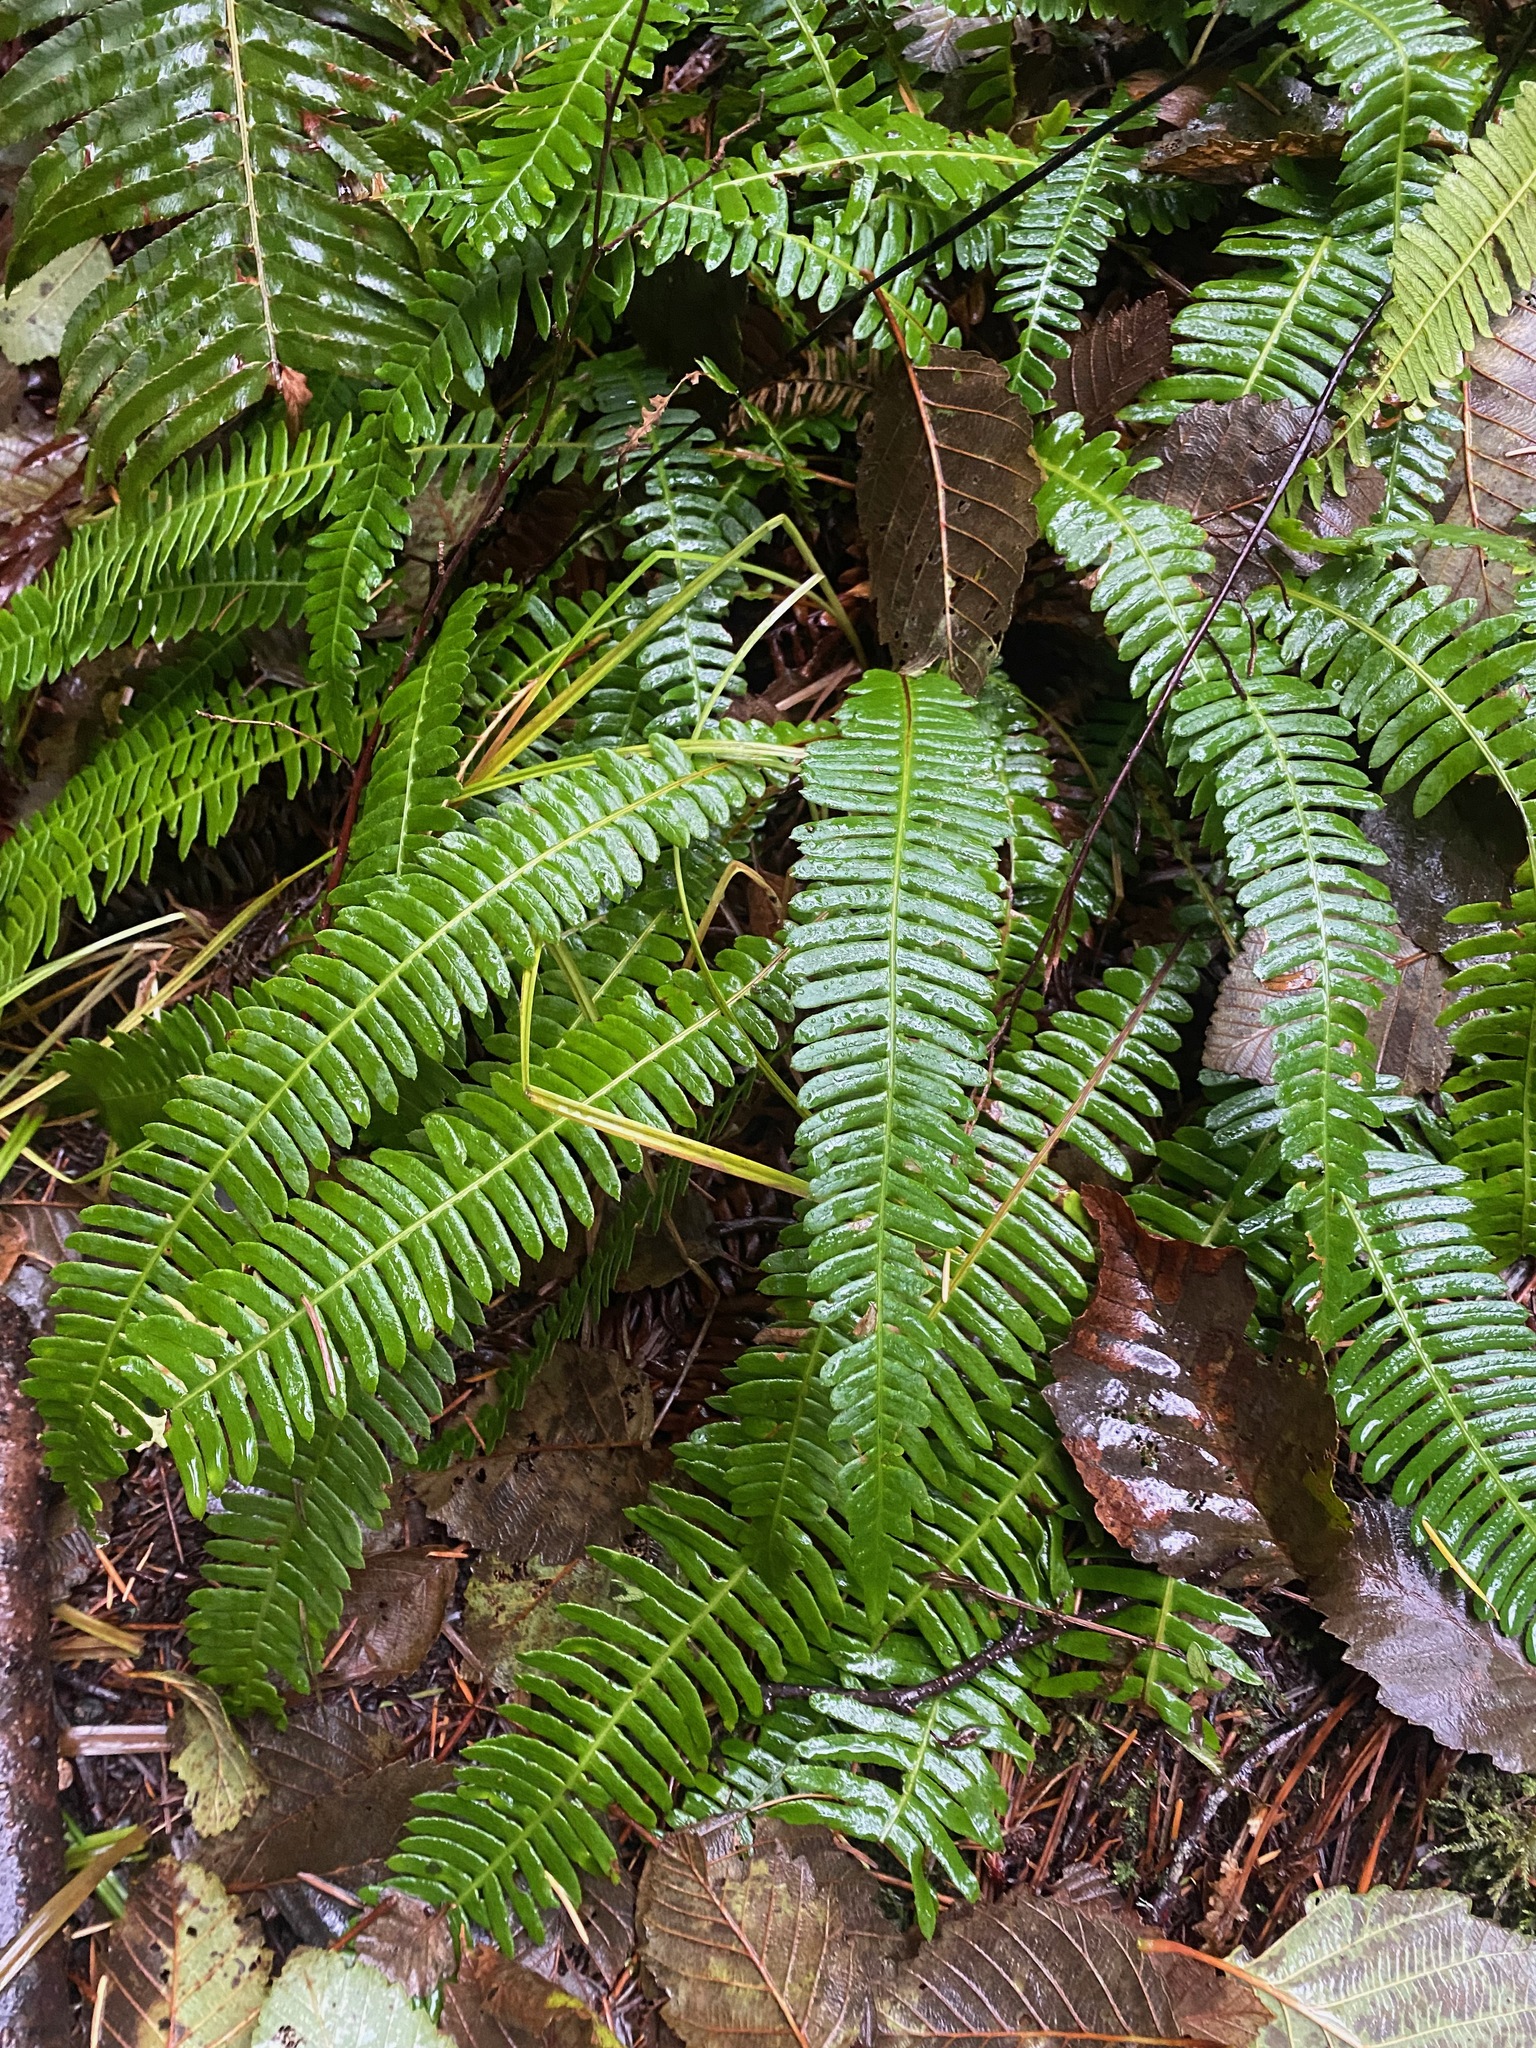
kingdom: Plantae
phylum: Tracheophyta
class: Polypodiopsida
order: Polypodiales
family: Blechnaceae
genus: Struthiopteris
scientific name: Struthiopteris spicant
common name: Deer fern
